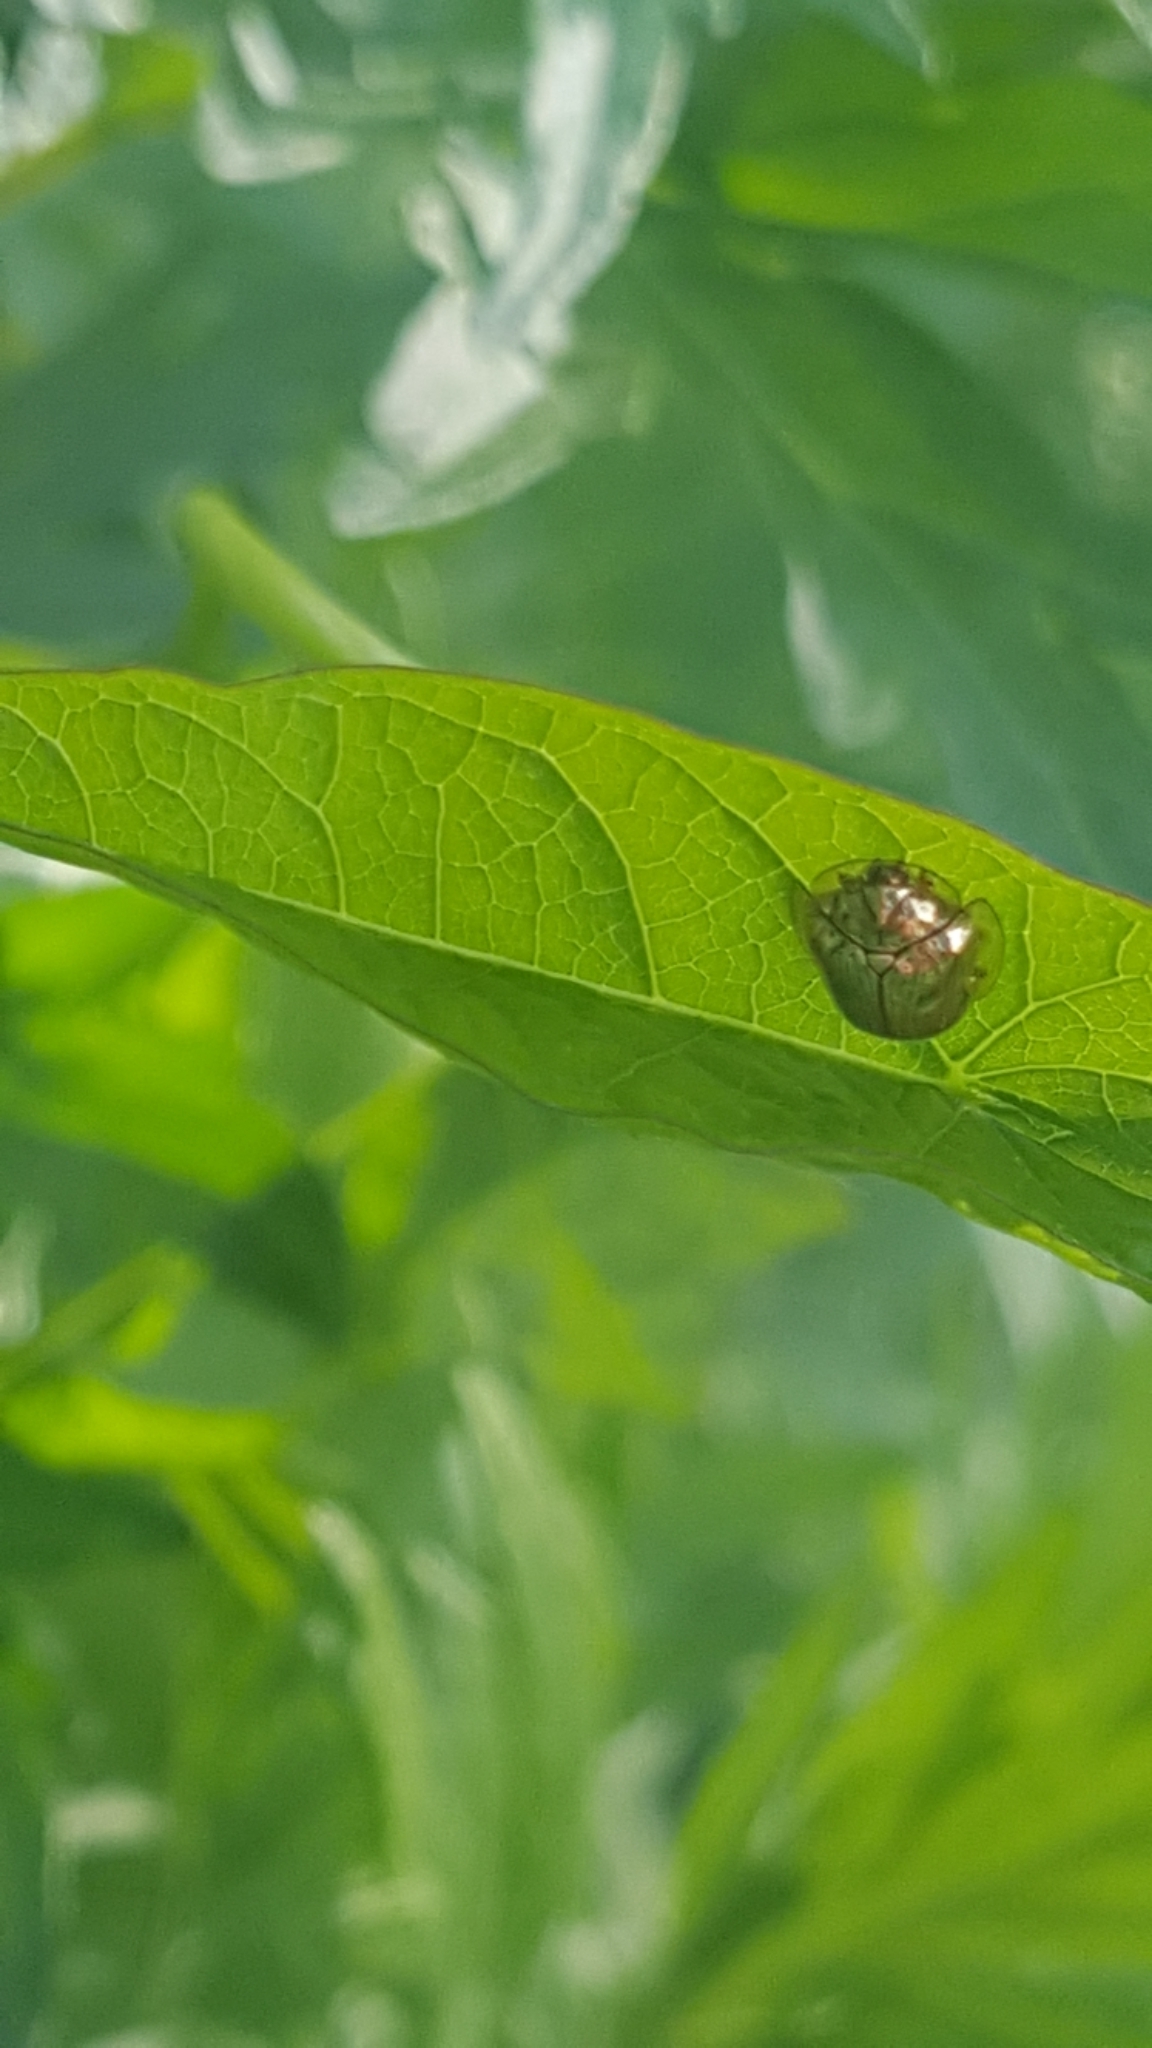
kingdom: Animalia
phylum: Arthropoda
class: Insecta
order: Coleoptera
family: Chrysomelidae
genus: Charidotella
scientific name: Charidotella sexpunctata
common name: Golden tortoise beetle
